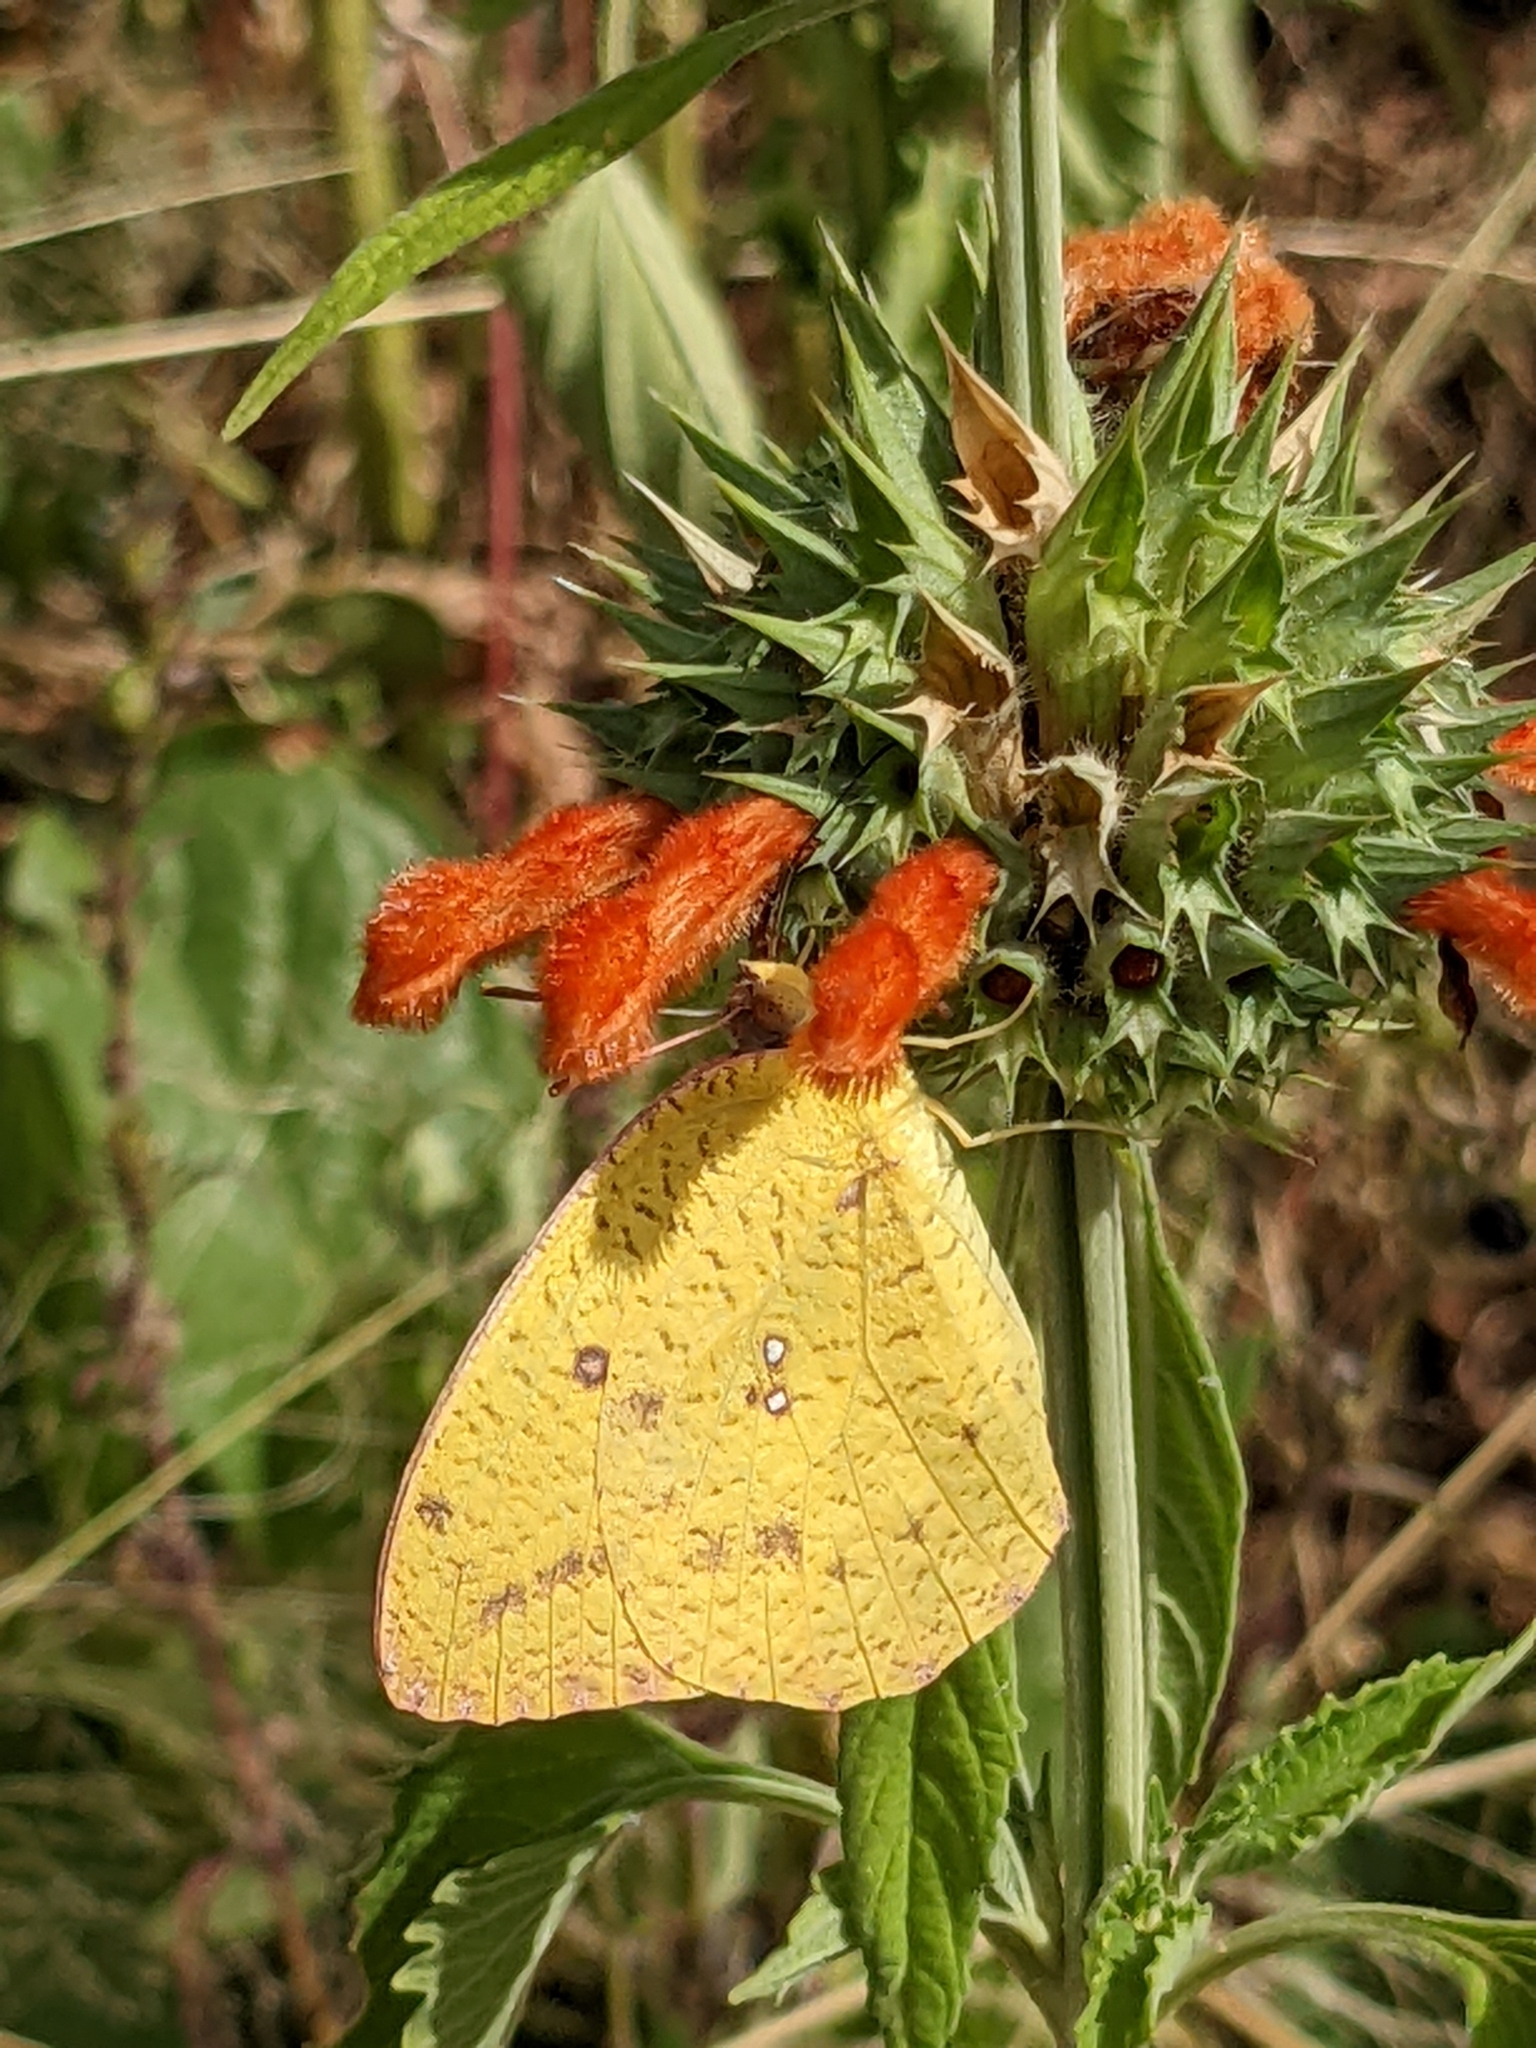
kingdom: Animalia
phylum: Arthropoda
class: Insecta
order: Lepidoptera
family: Pieridae
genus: Catopsilia
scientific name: Catopsilia florella
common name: African migrant
